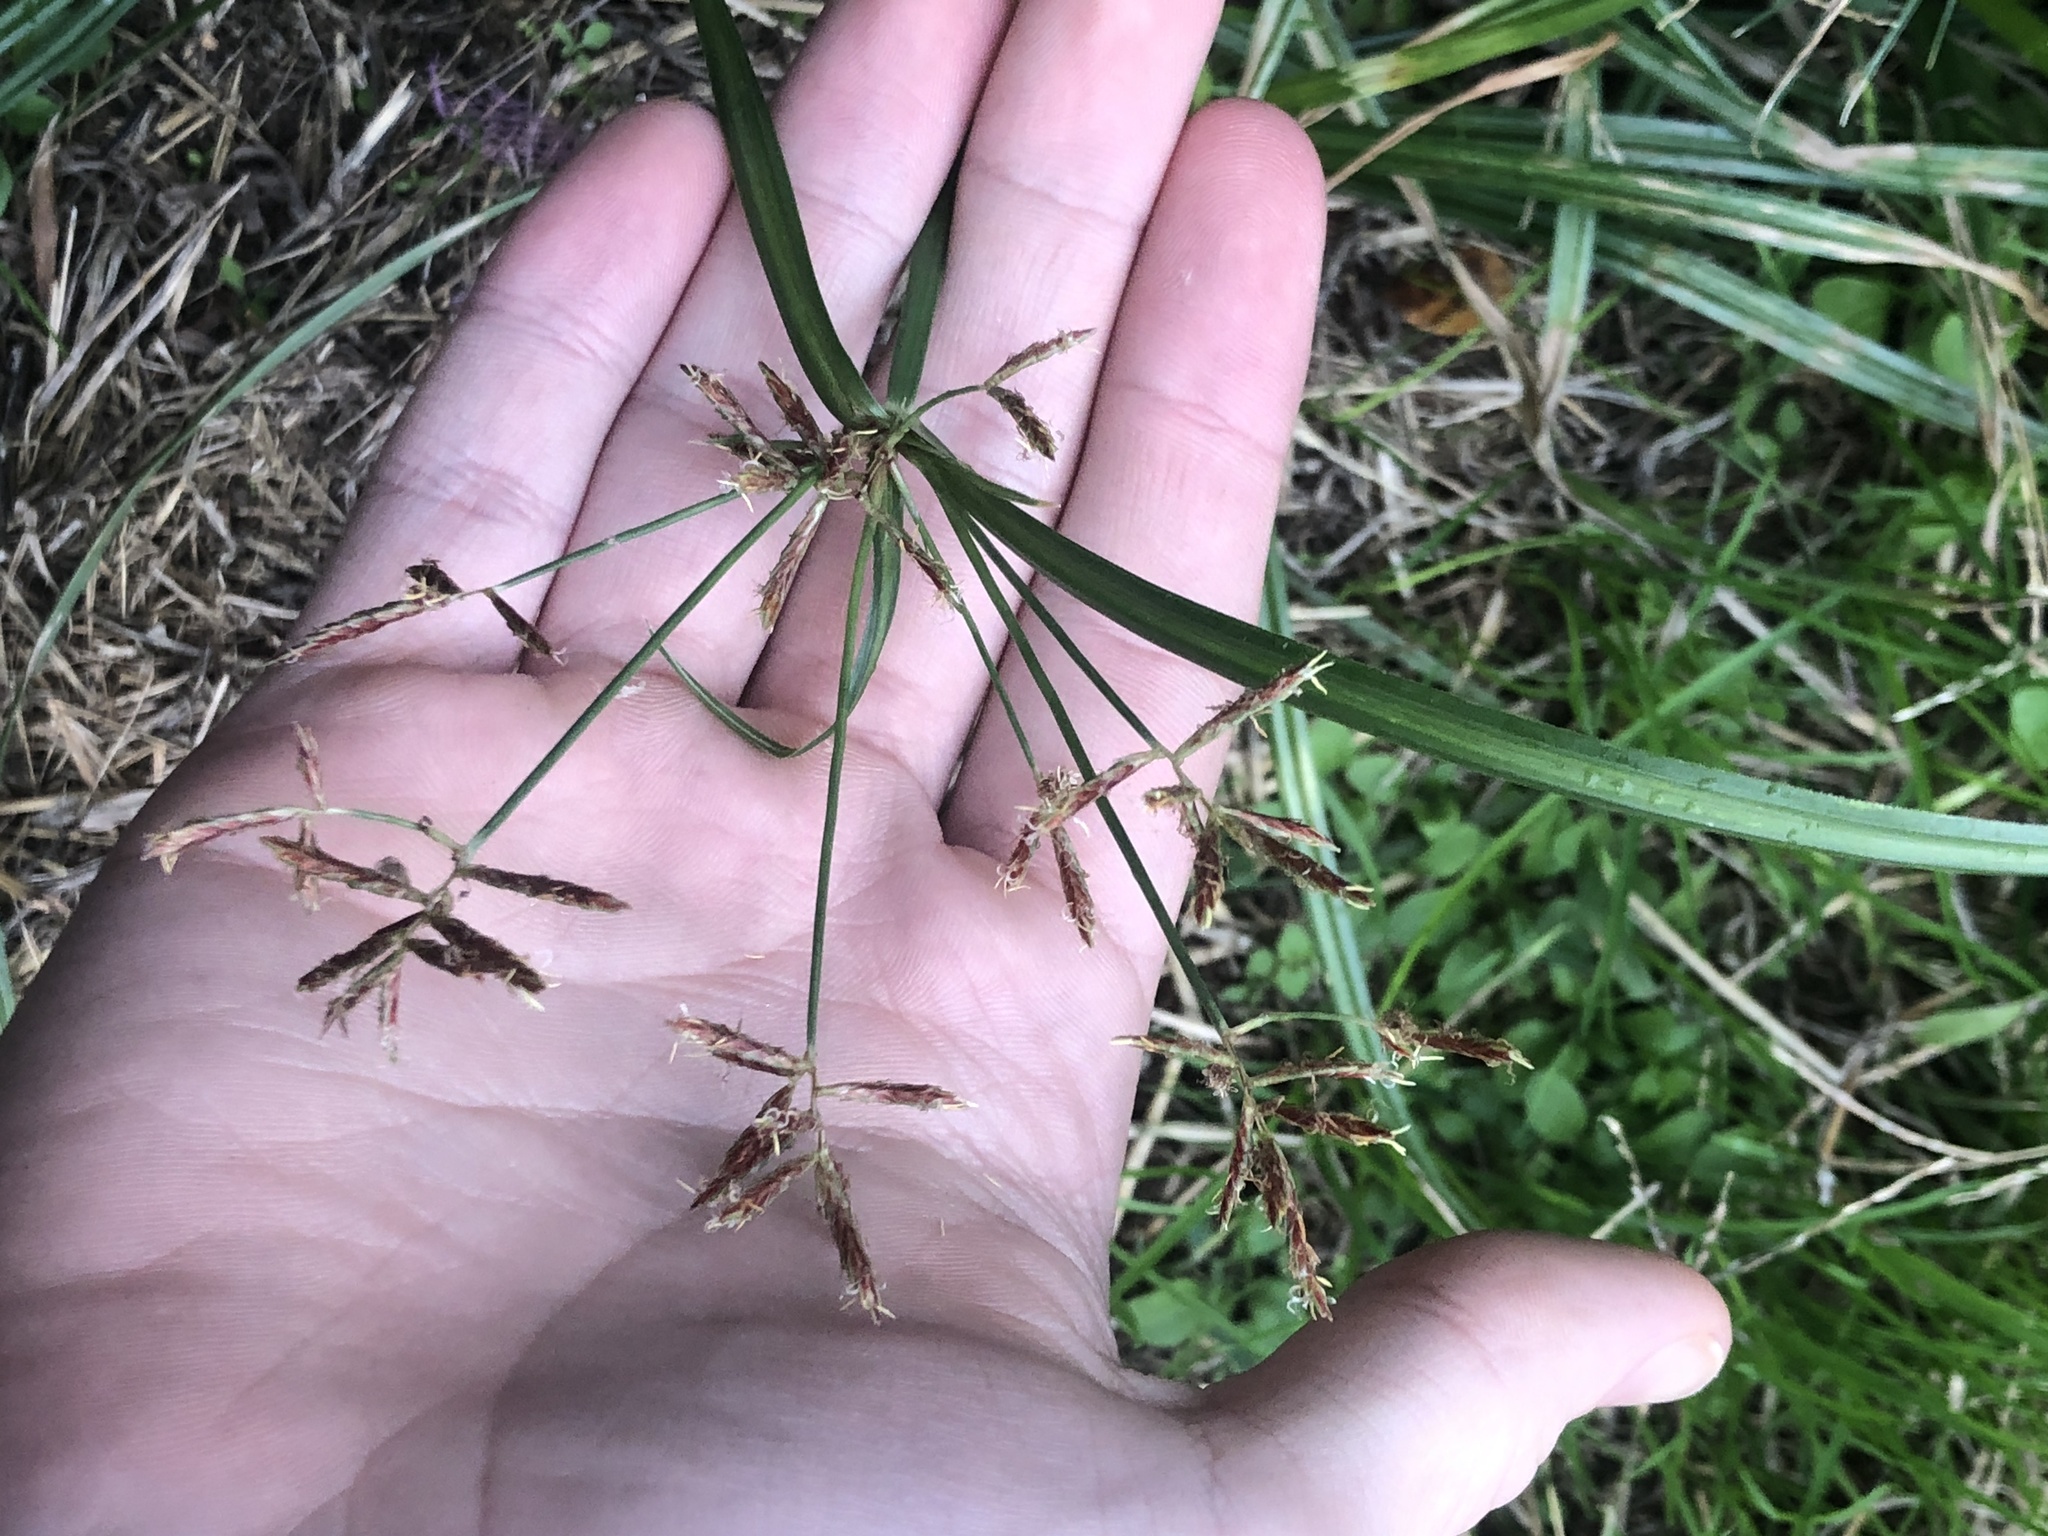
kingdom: Plantae
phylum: Tracheophyta
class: Liliopsida
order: Poales
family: Cyperaceae
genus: Cyperus
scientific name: Cyperus rotundus
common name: Nutgrass
